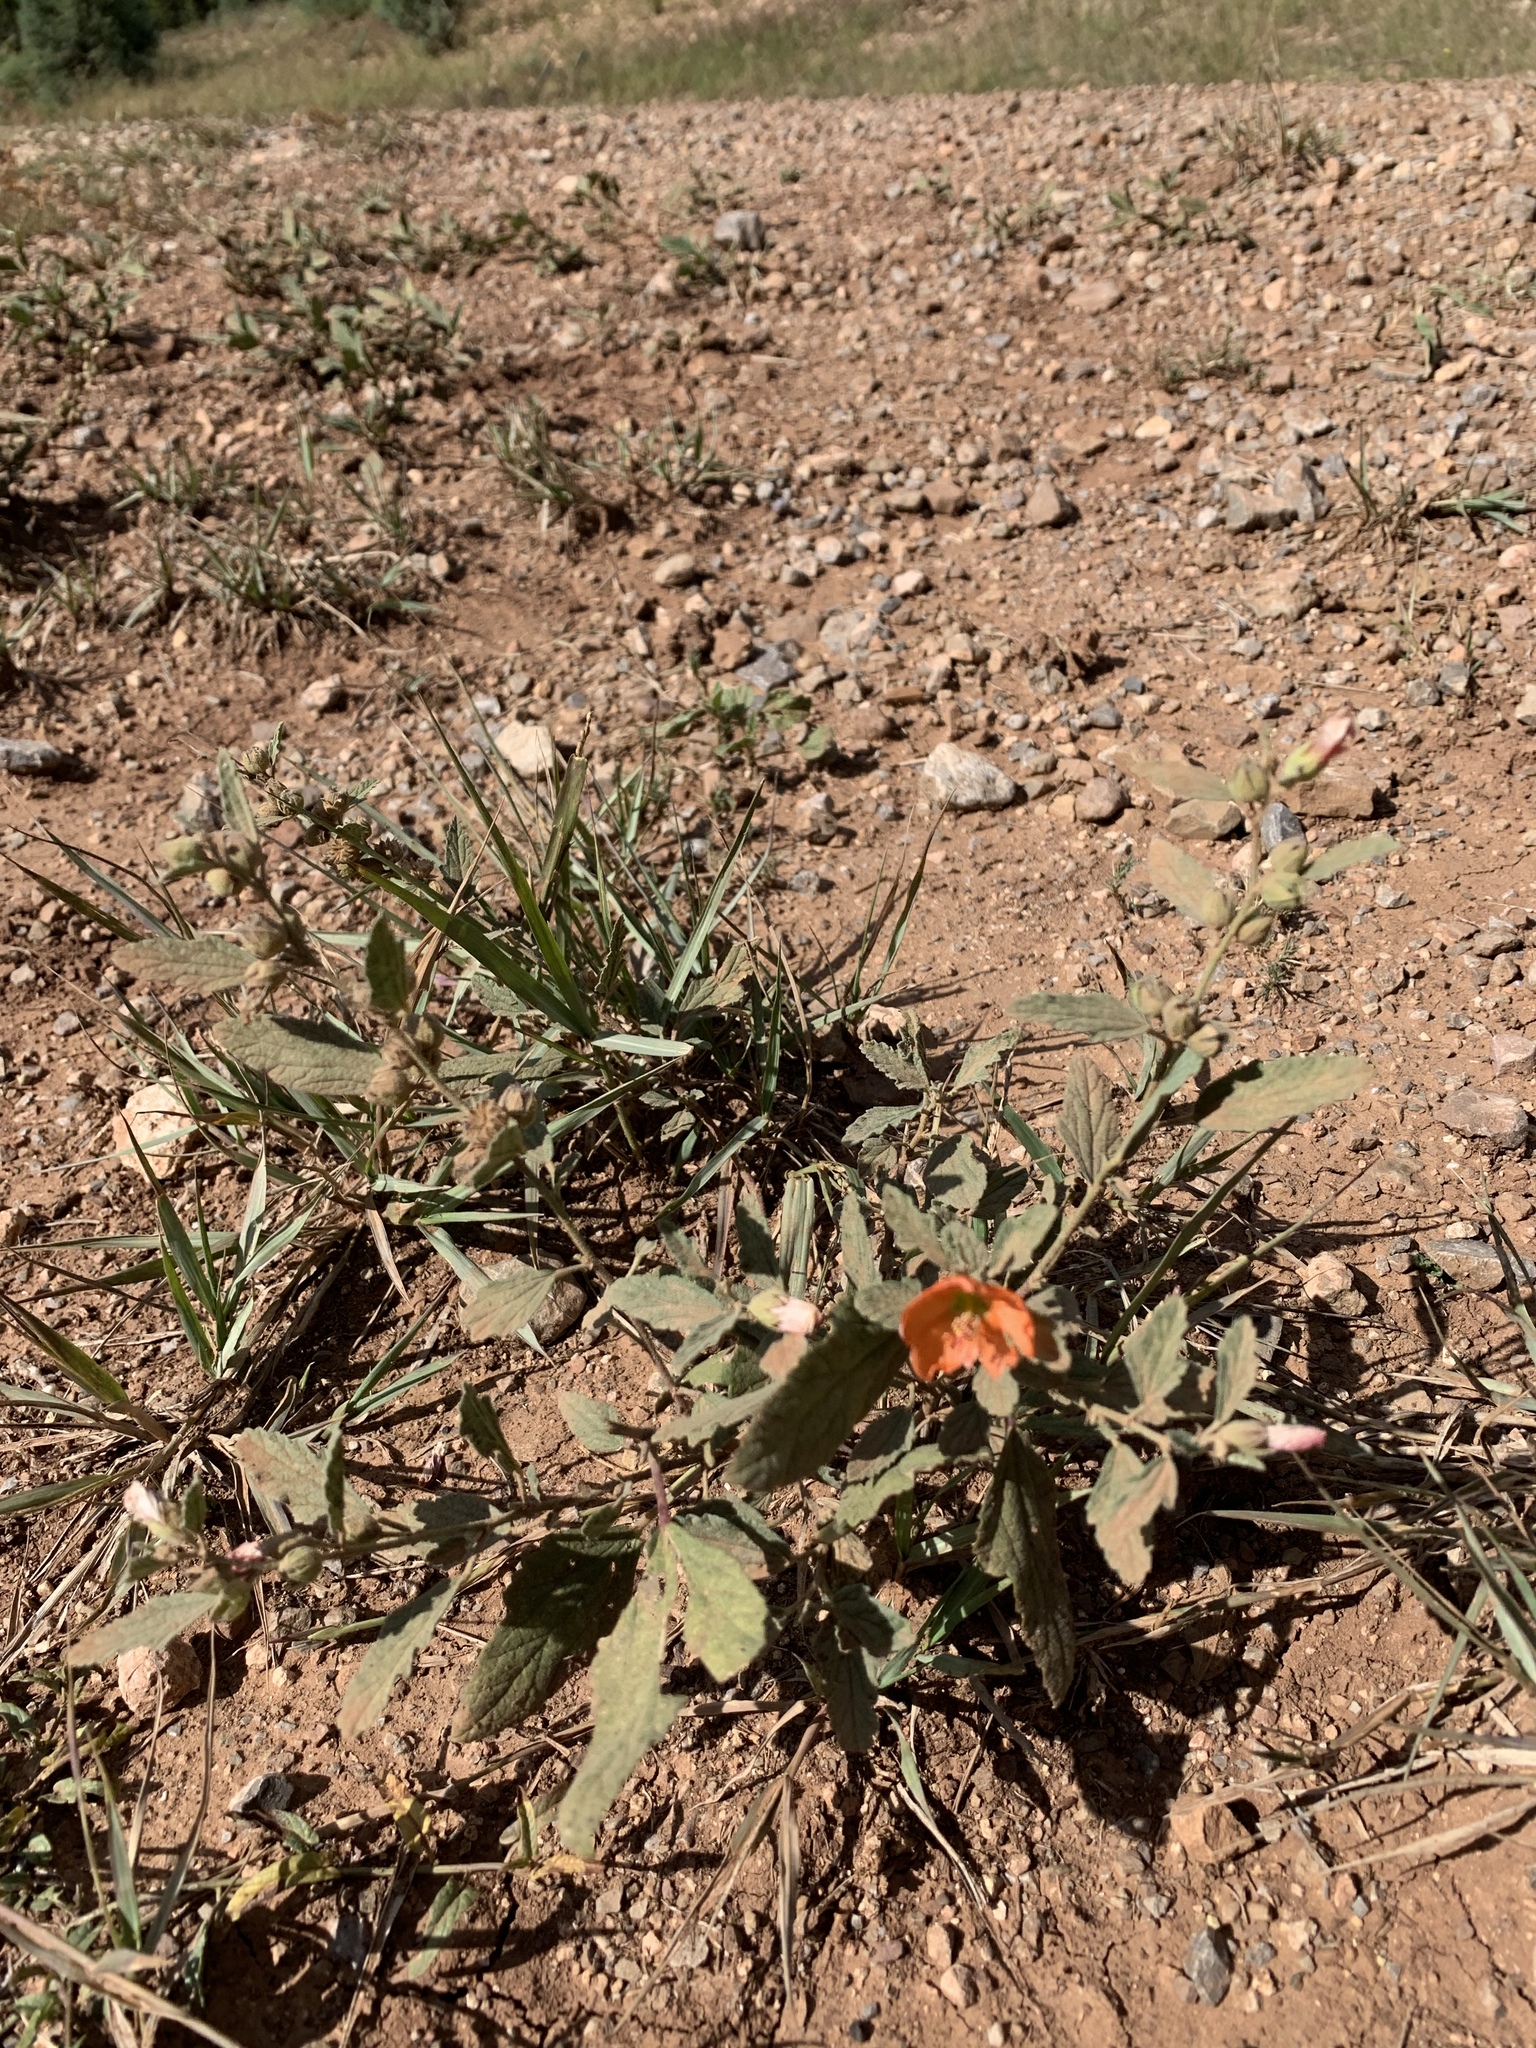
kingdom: Plantae
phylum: Tracheophyta
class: Magnoliopsida
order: Malvales
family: Malvaceae
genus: Sphaeralcea
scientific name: Sphaeralcea angustifolia
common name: Copper globe-mallow
